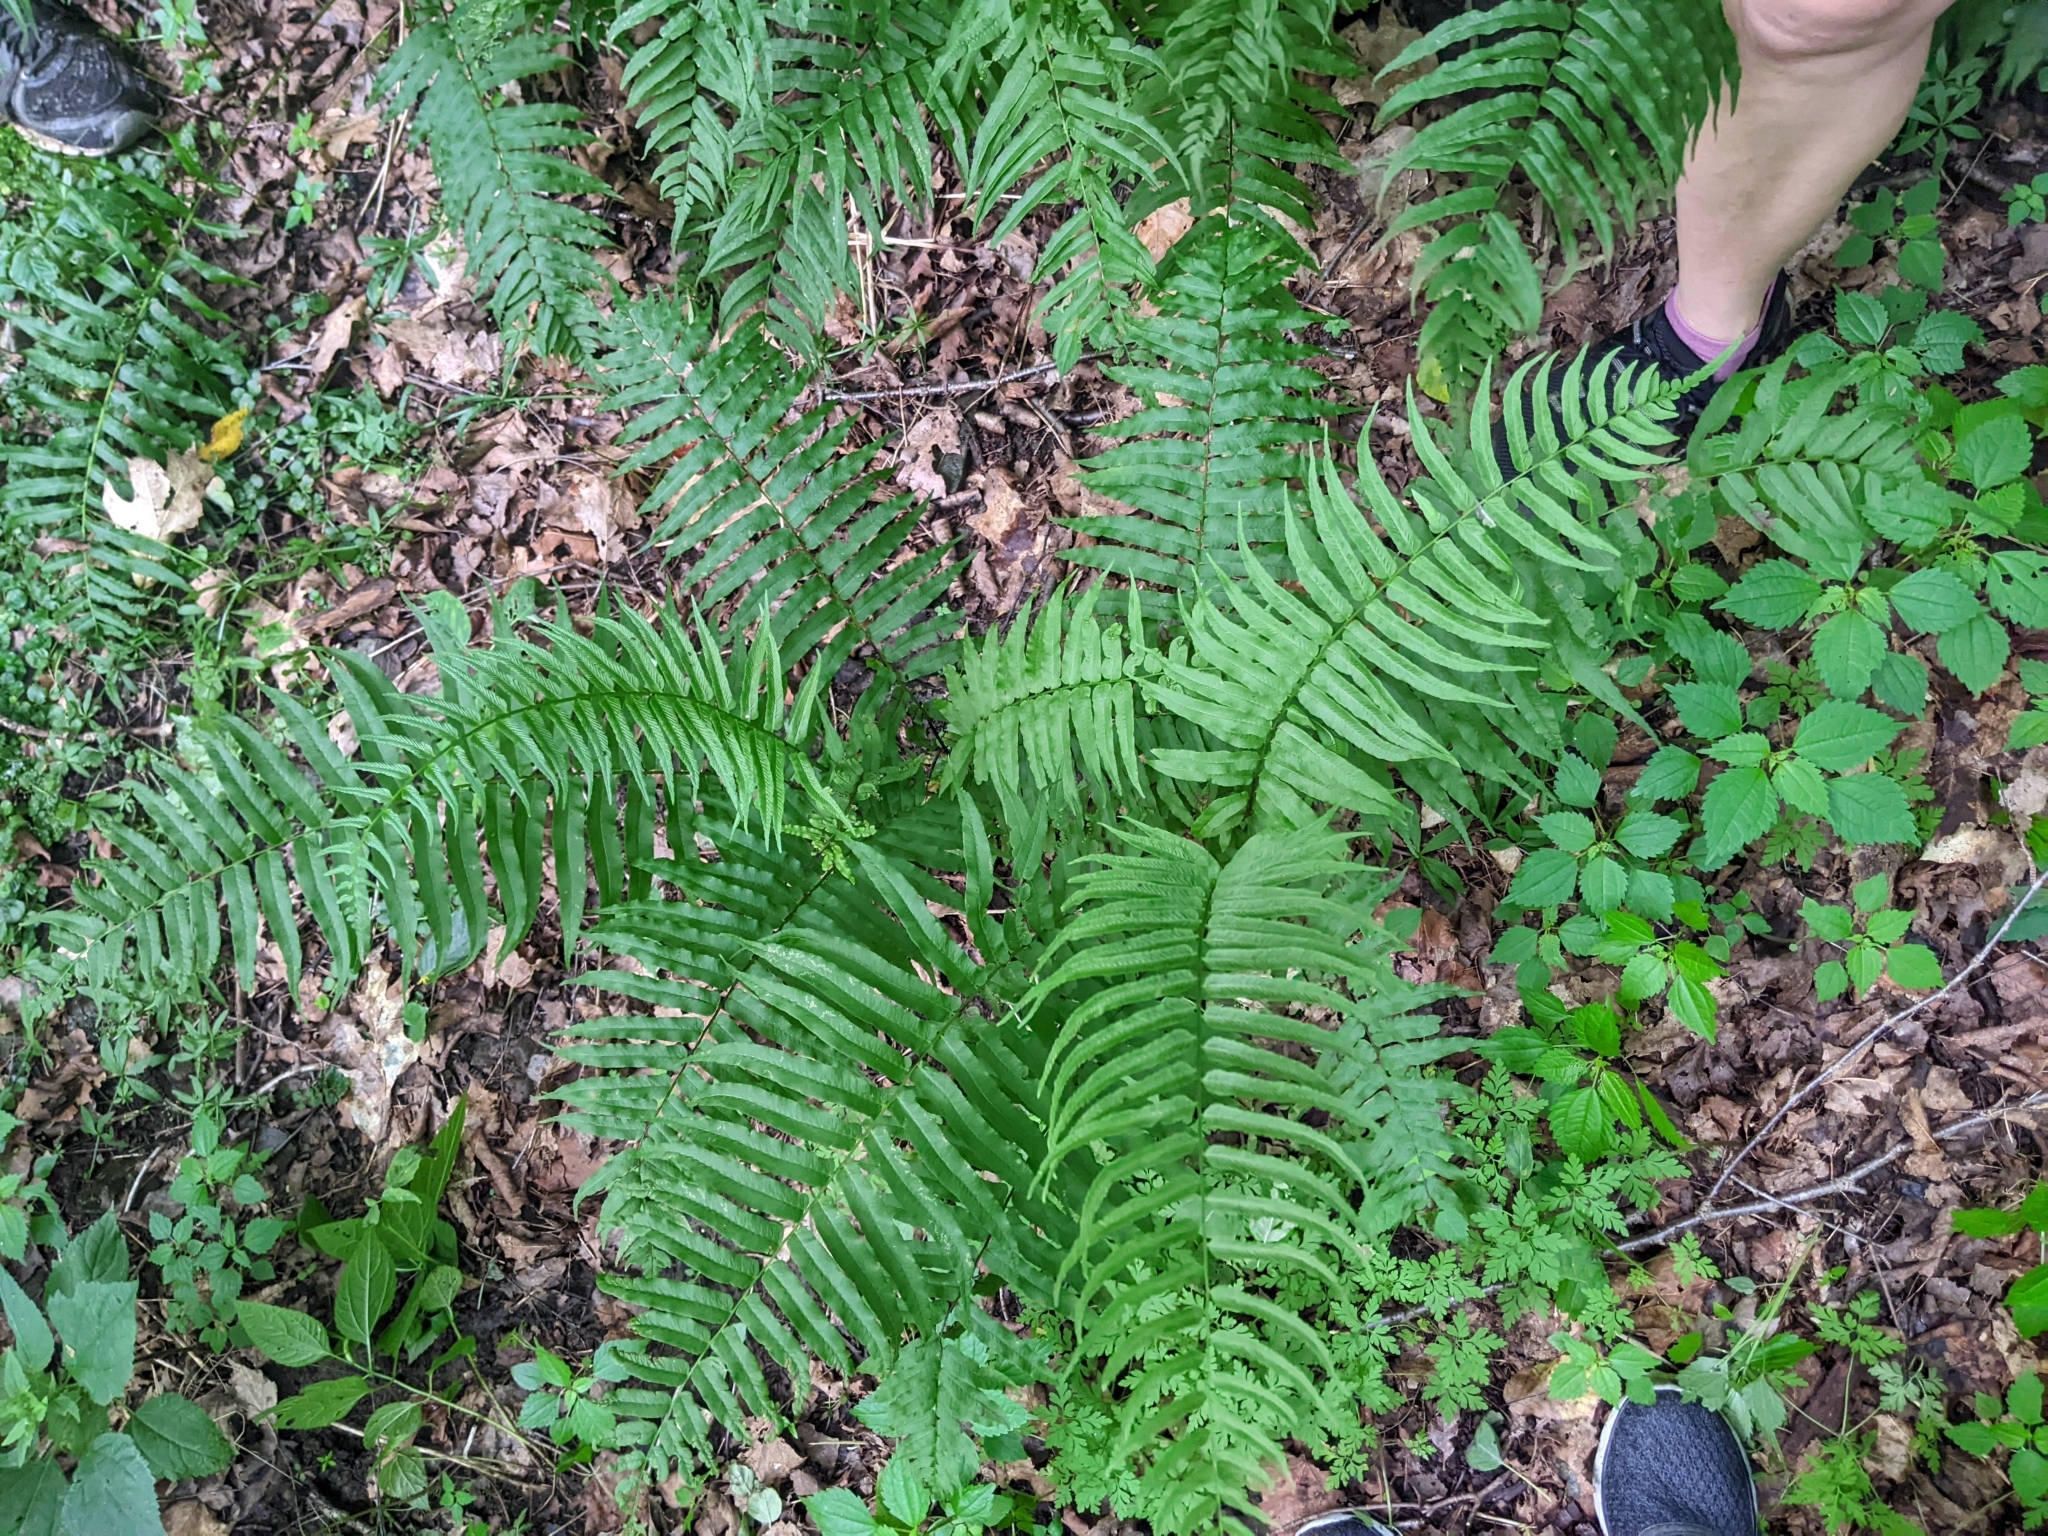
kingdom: Plantae
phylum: Tracheophyta
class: Polypodiopsida
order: Polypodiales
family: Diplaziopsidaceae
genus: Homalosorus
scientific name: Homalosorus pycnocarpos
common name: Glade fern
